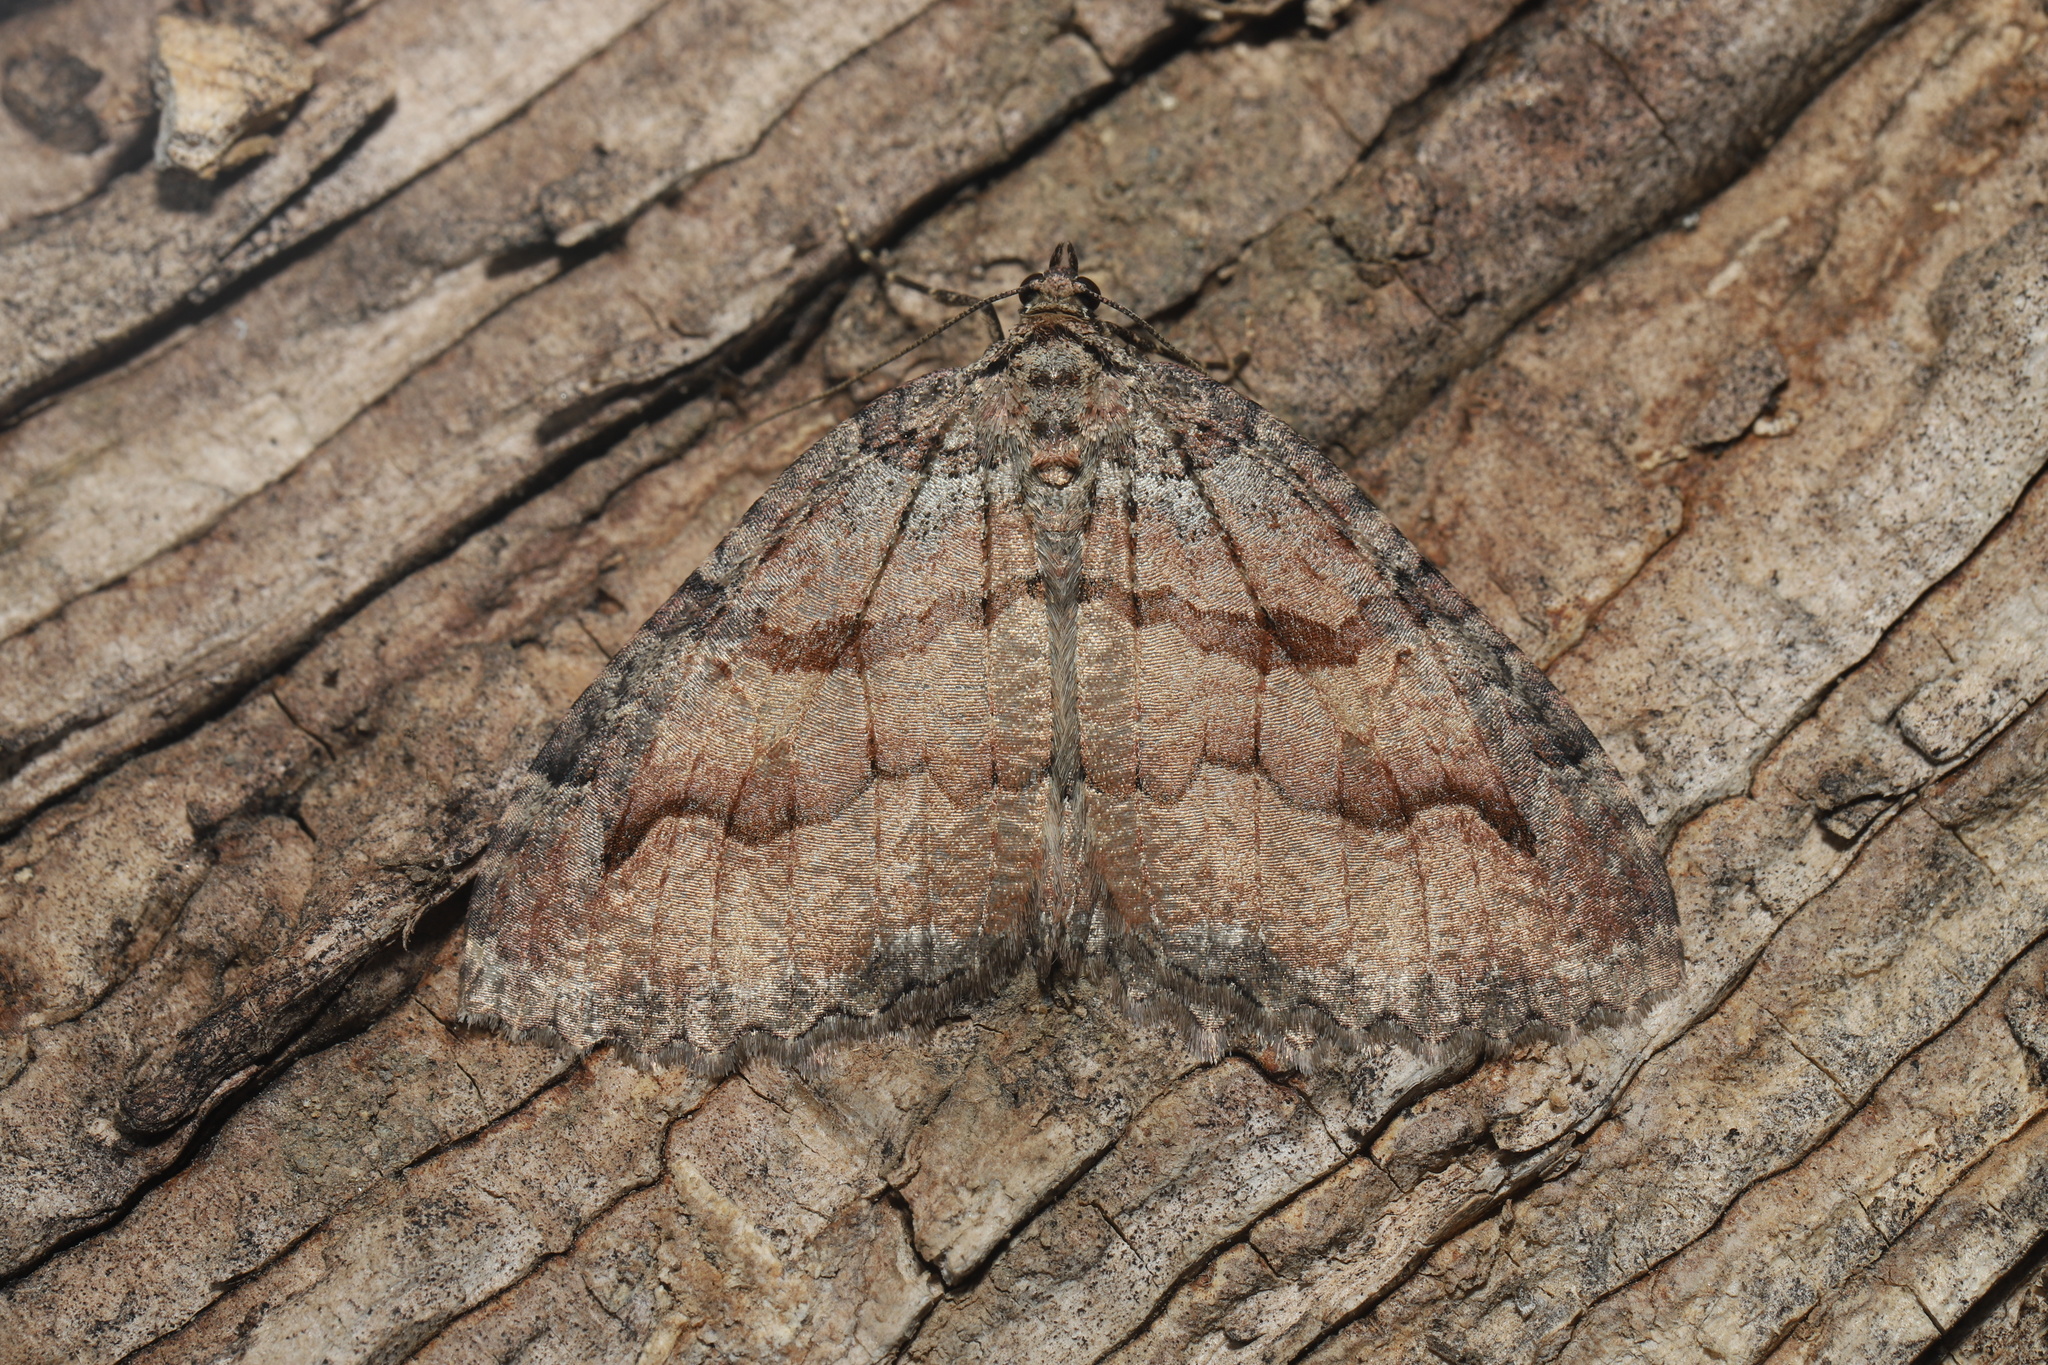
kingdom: Animalia
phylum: Arthropoda
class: Insecta
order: Lepidoptera
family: Geometridae
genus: Triphosa
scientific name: Triphosa haesitata
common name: Tissue moth
